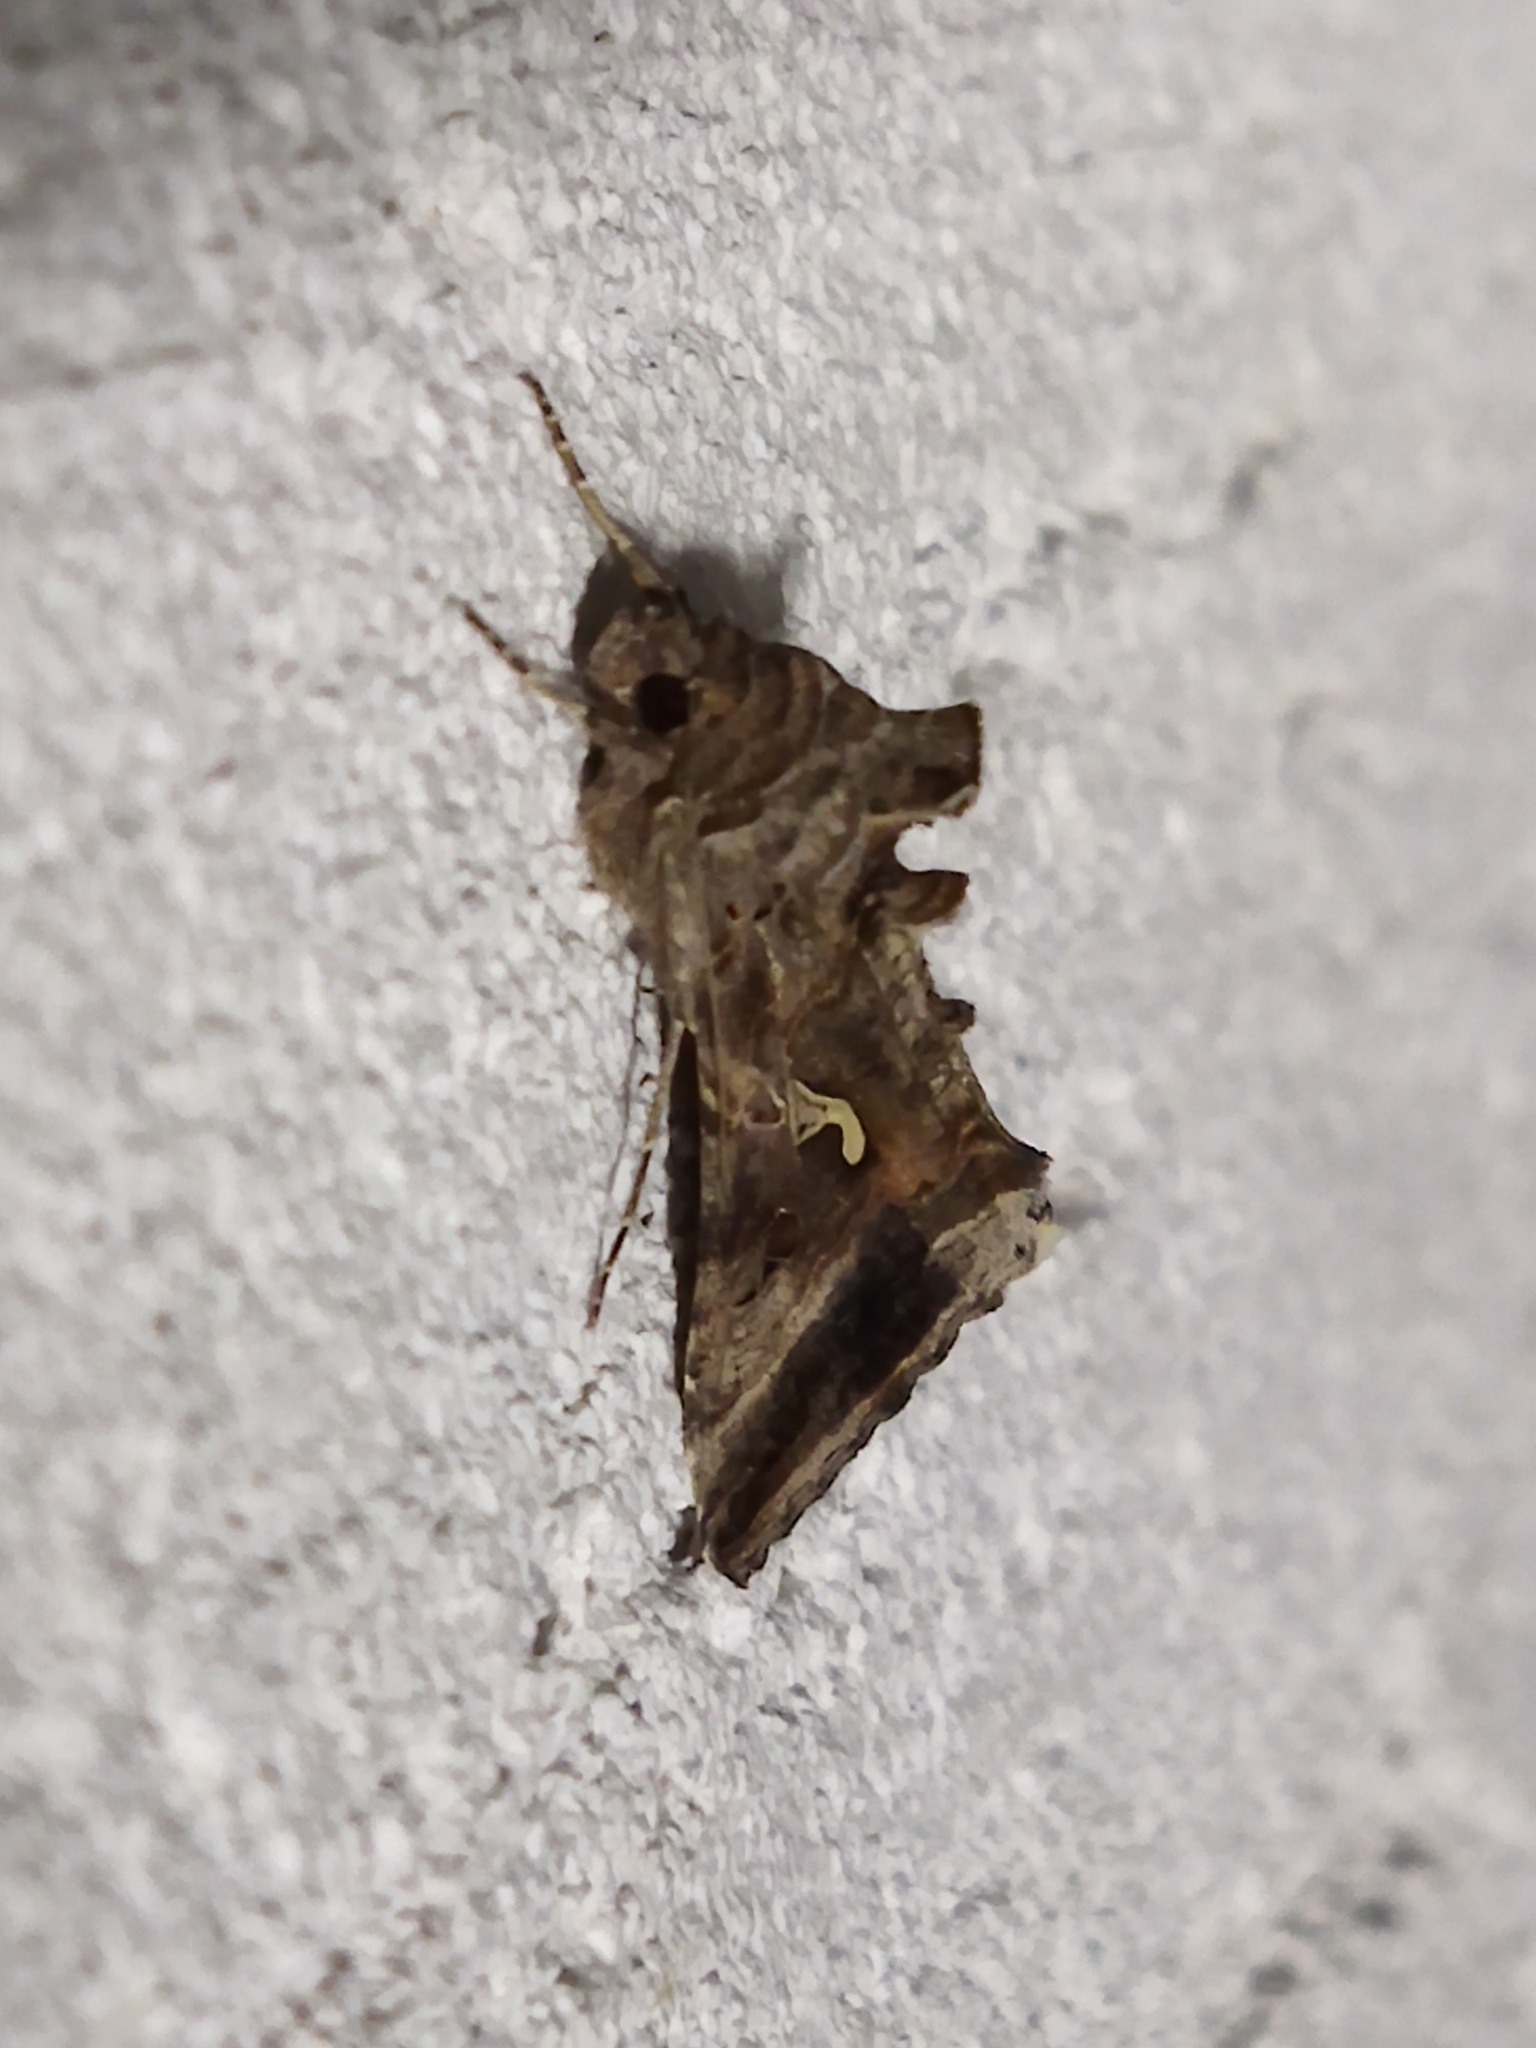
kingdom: Animalia
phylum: Arthropoda
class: Insecta
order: Lepidoptera
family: Noctuidae
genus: Autographa
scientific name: Autographa gamma
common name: Silver y
